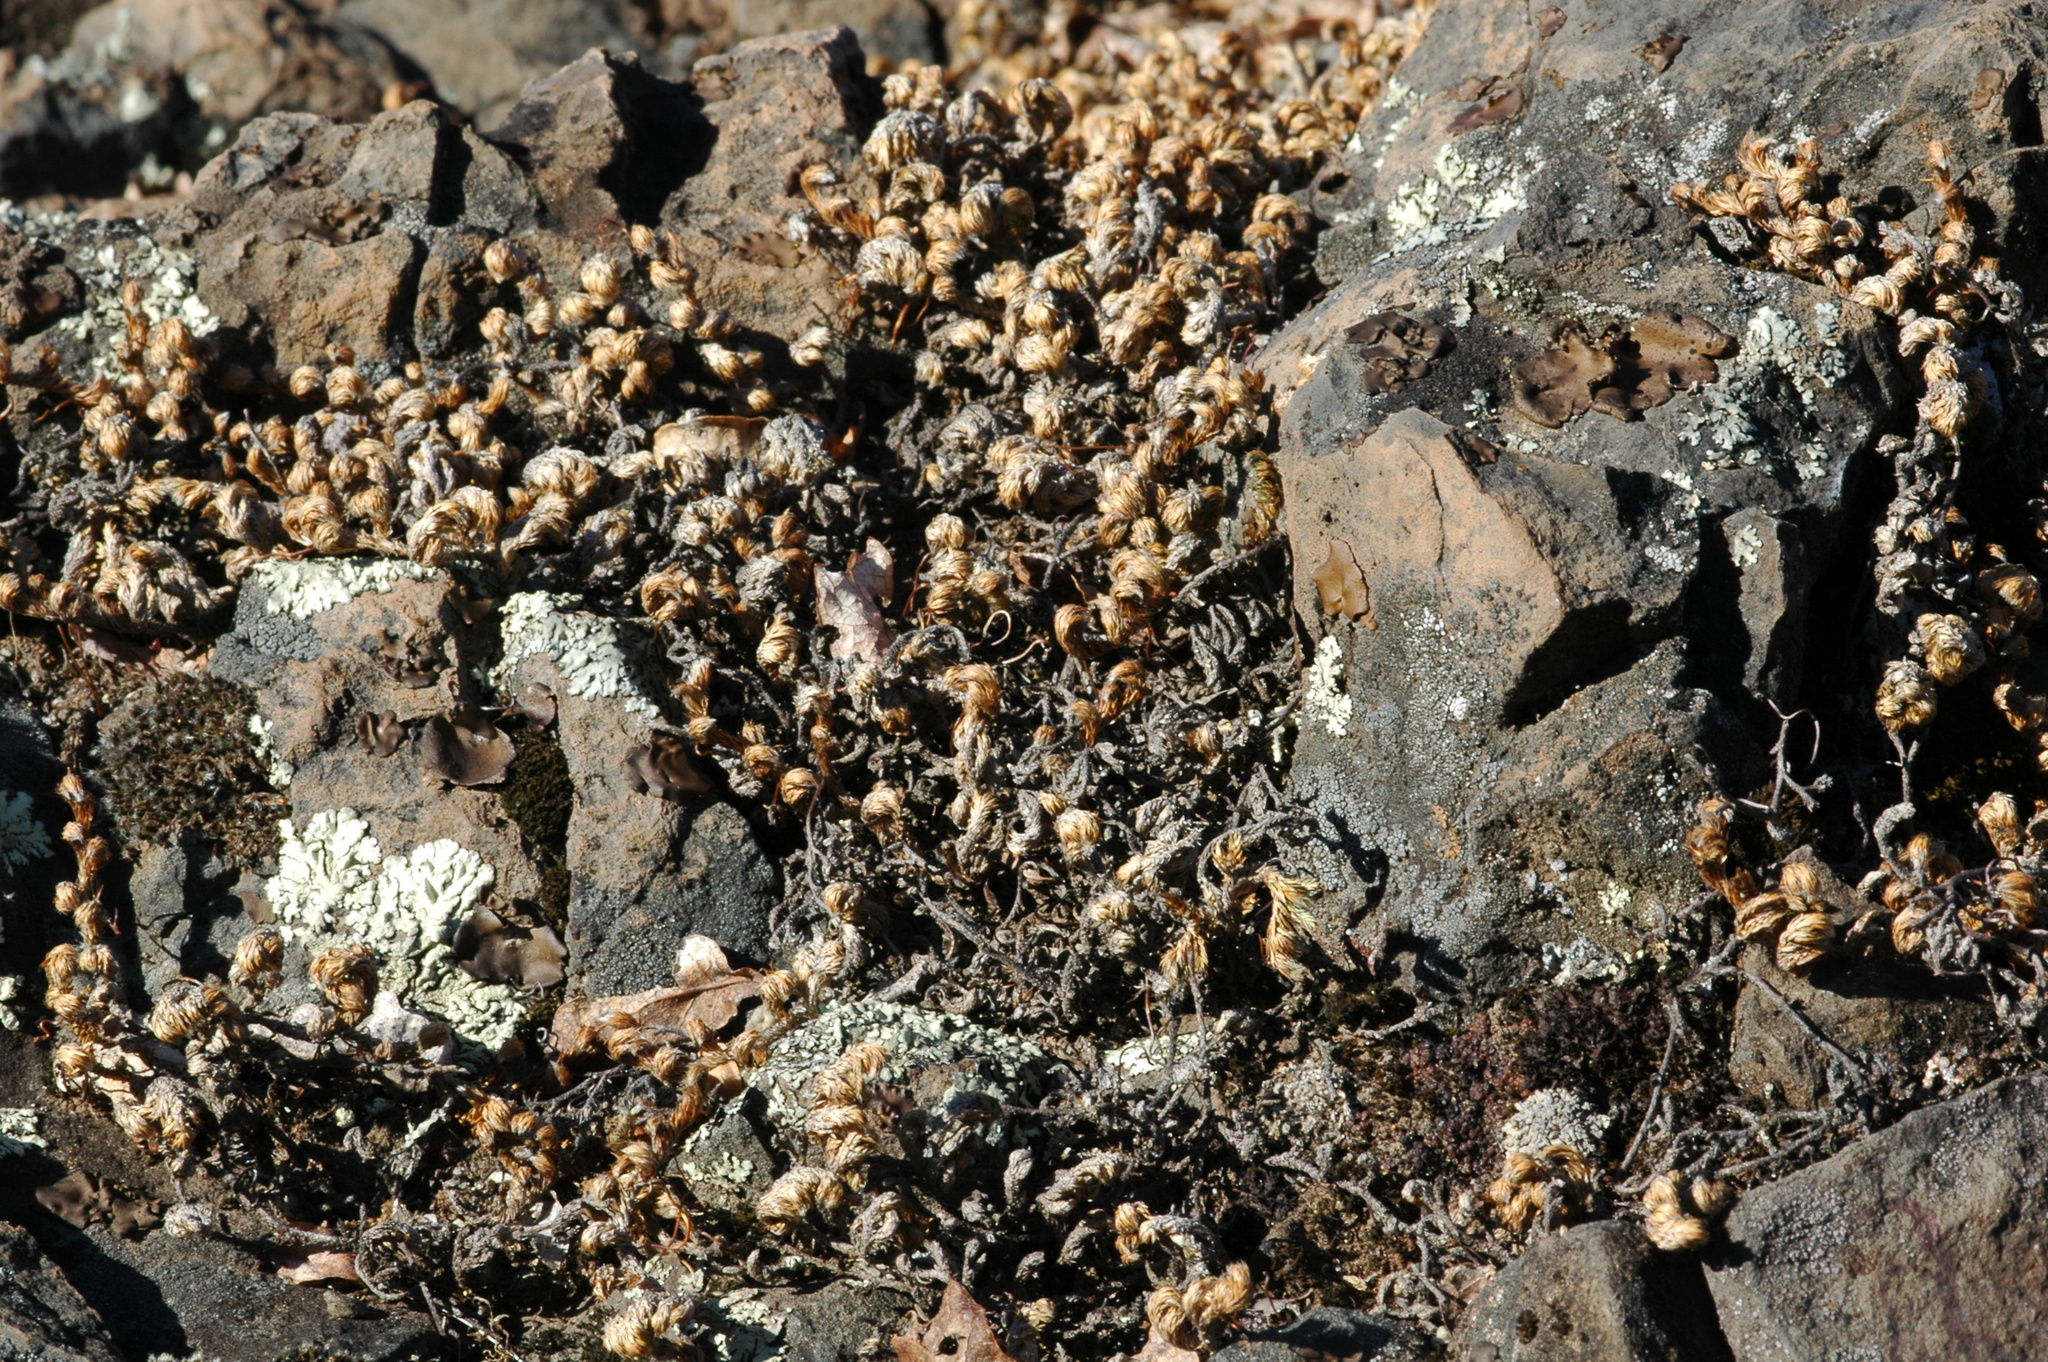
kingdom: Plantae
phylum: Tracheophyta
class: Lycopodiopsida
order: Selaginellales
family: Selaginellaceae
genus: Selaginella
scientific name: Selaginella hansenii
